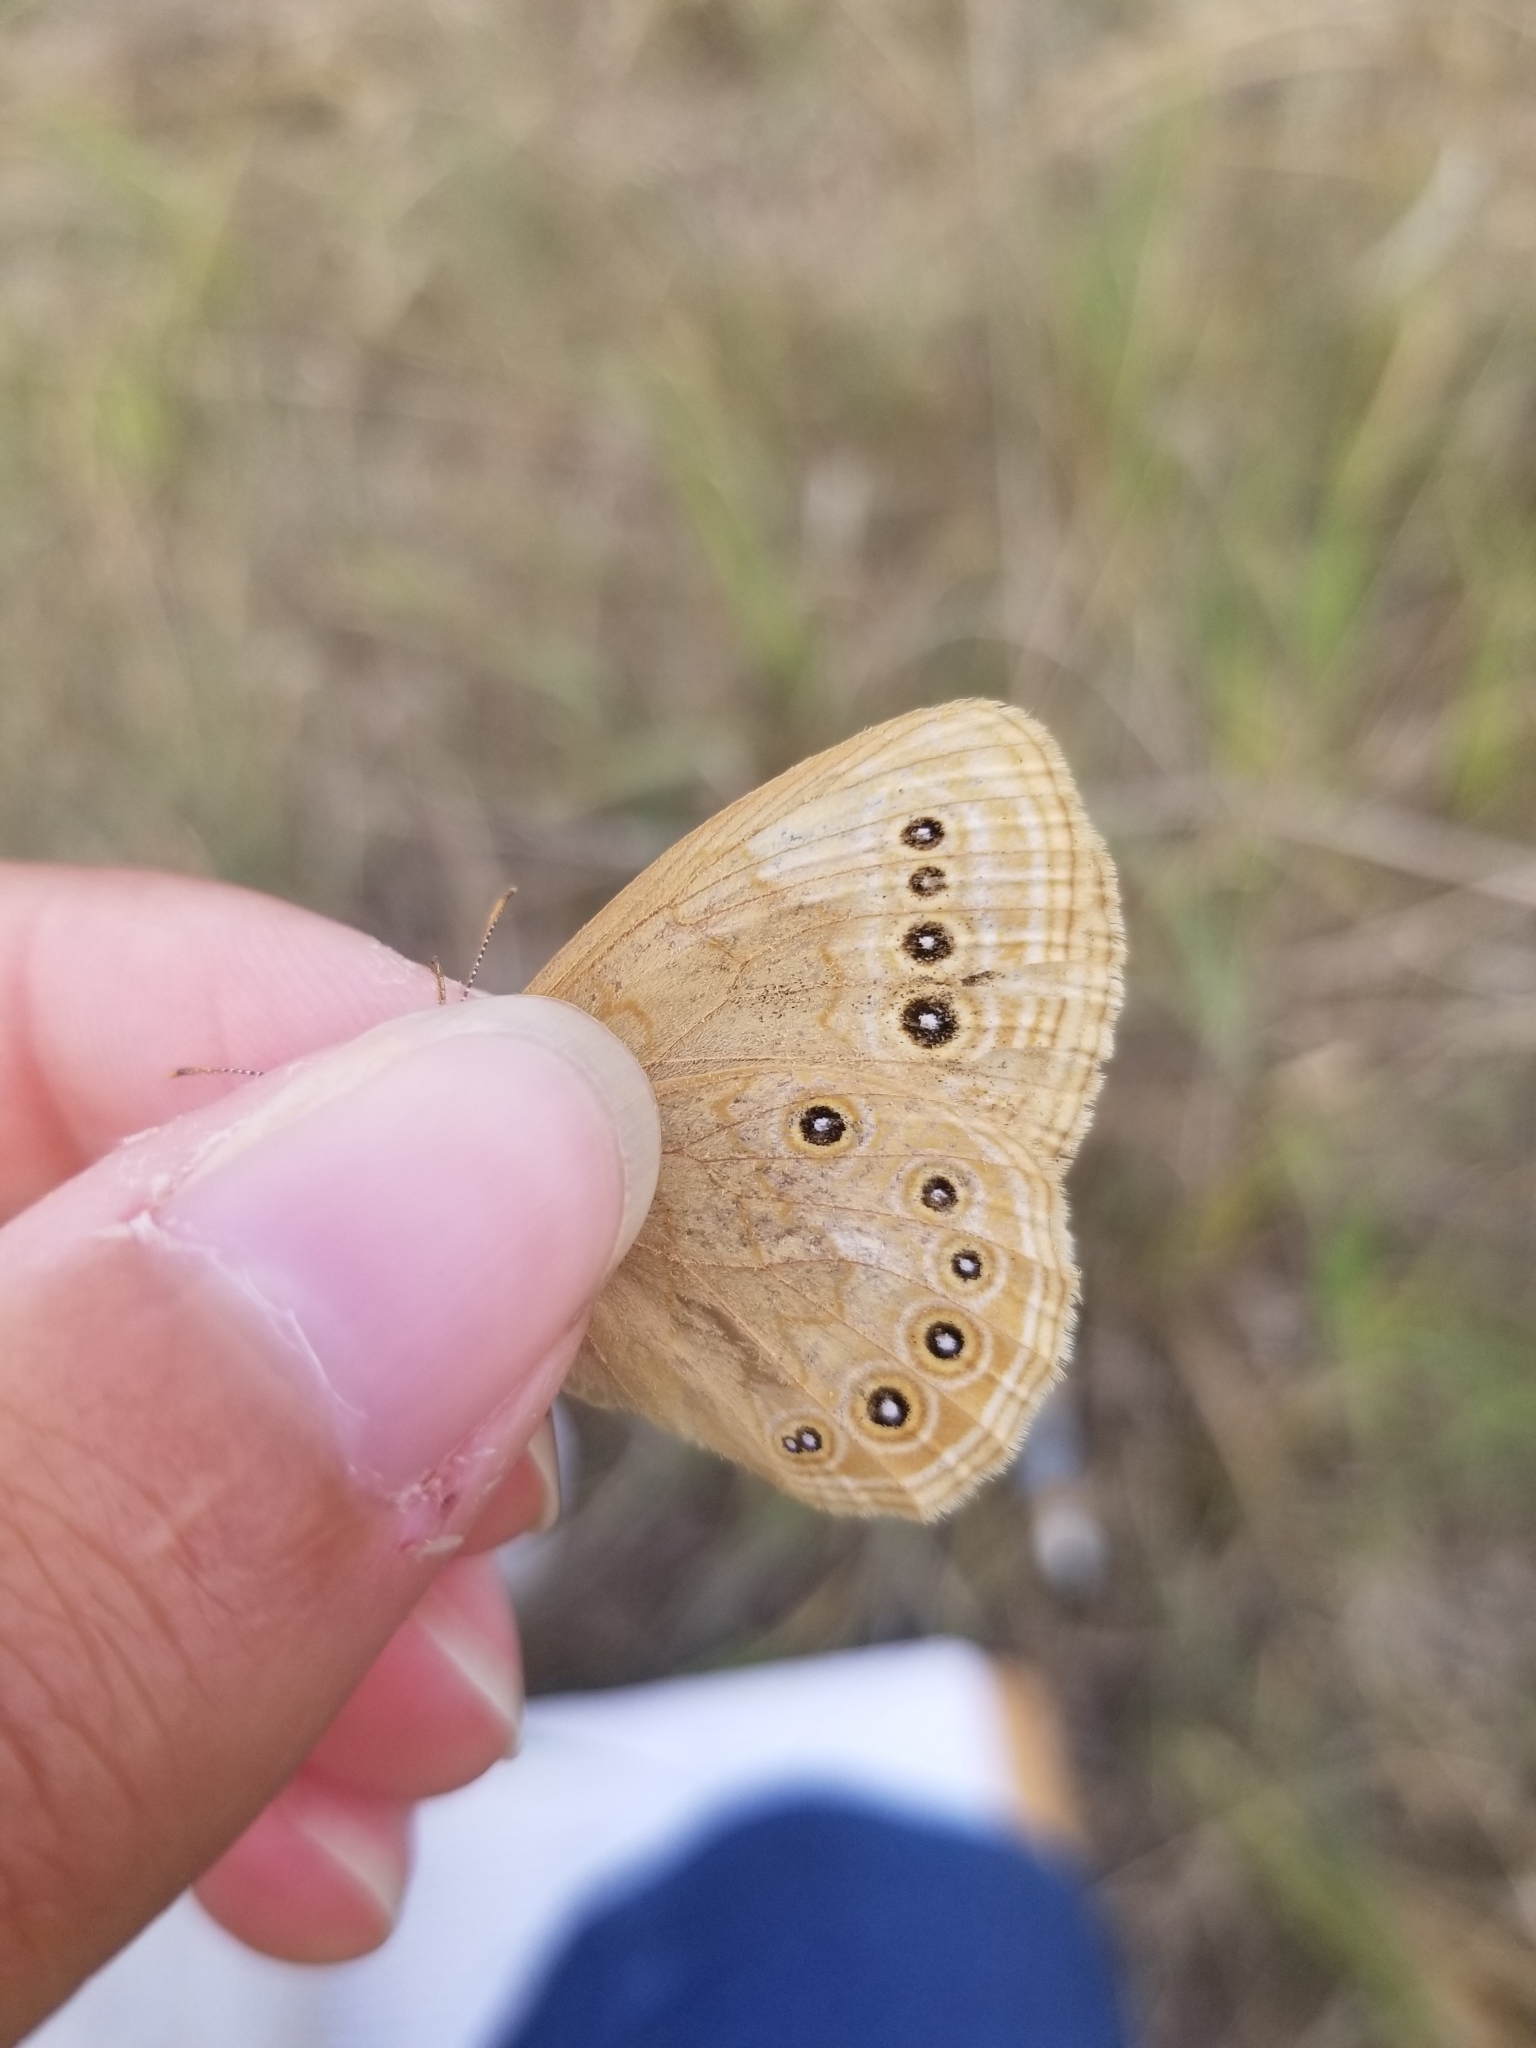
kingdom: Animalia
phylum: Arthropoda
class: Insecta
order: Lepidoptera
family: Nymphalidae
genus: Lethe
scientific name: Lethe eurydice
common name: Eyed brown
